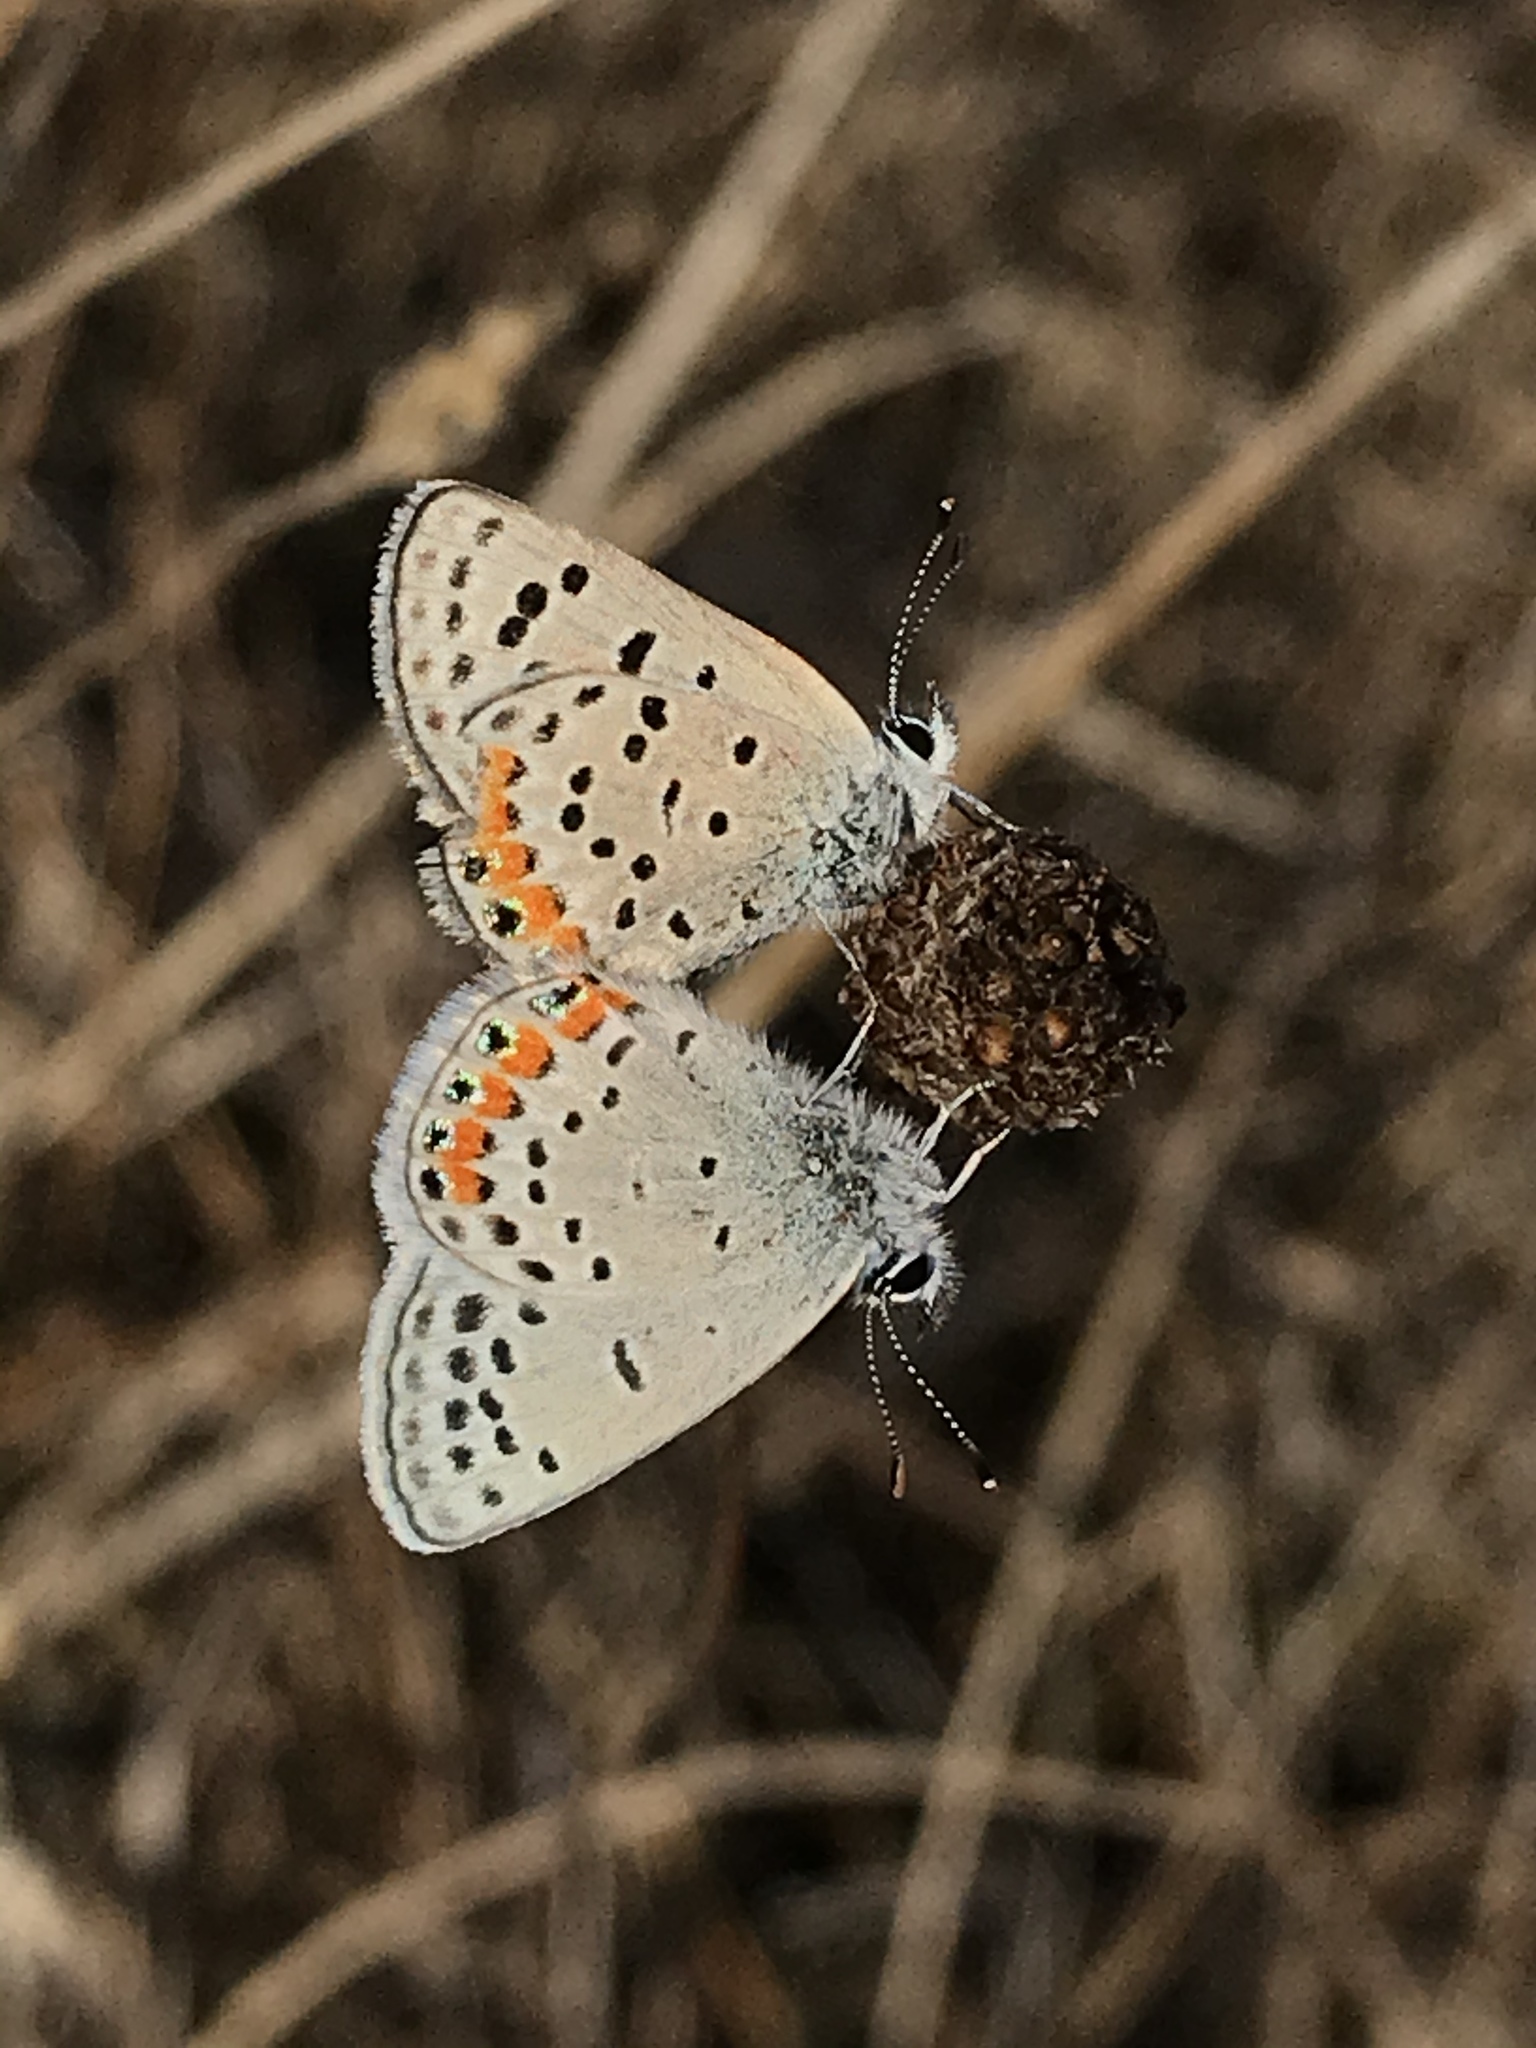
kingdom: Animalia
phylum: Arthropoda
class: Insecta
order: Lepidoptera
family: Lycaenidae
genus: Icaricia
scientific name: Icaricia acmon
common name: Acmon blue
